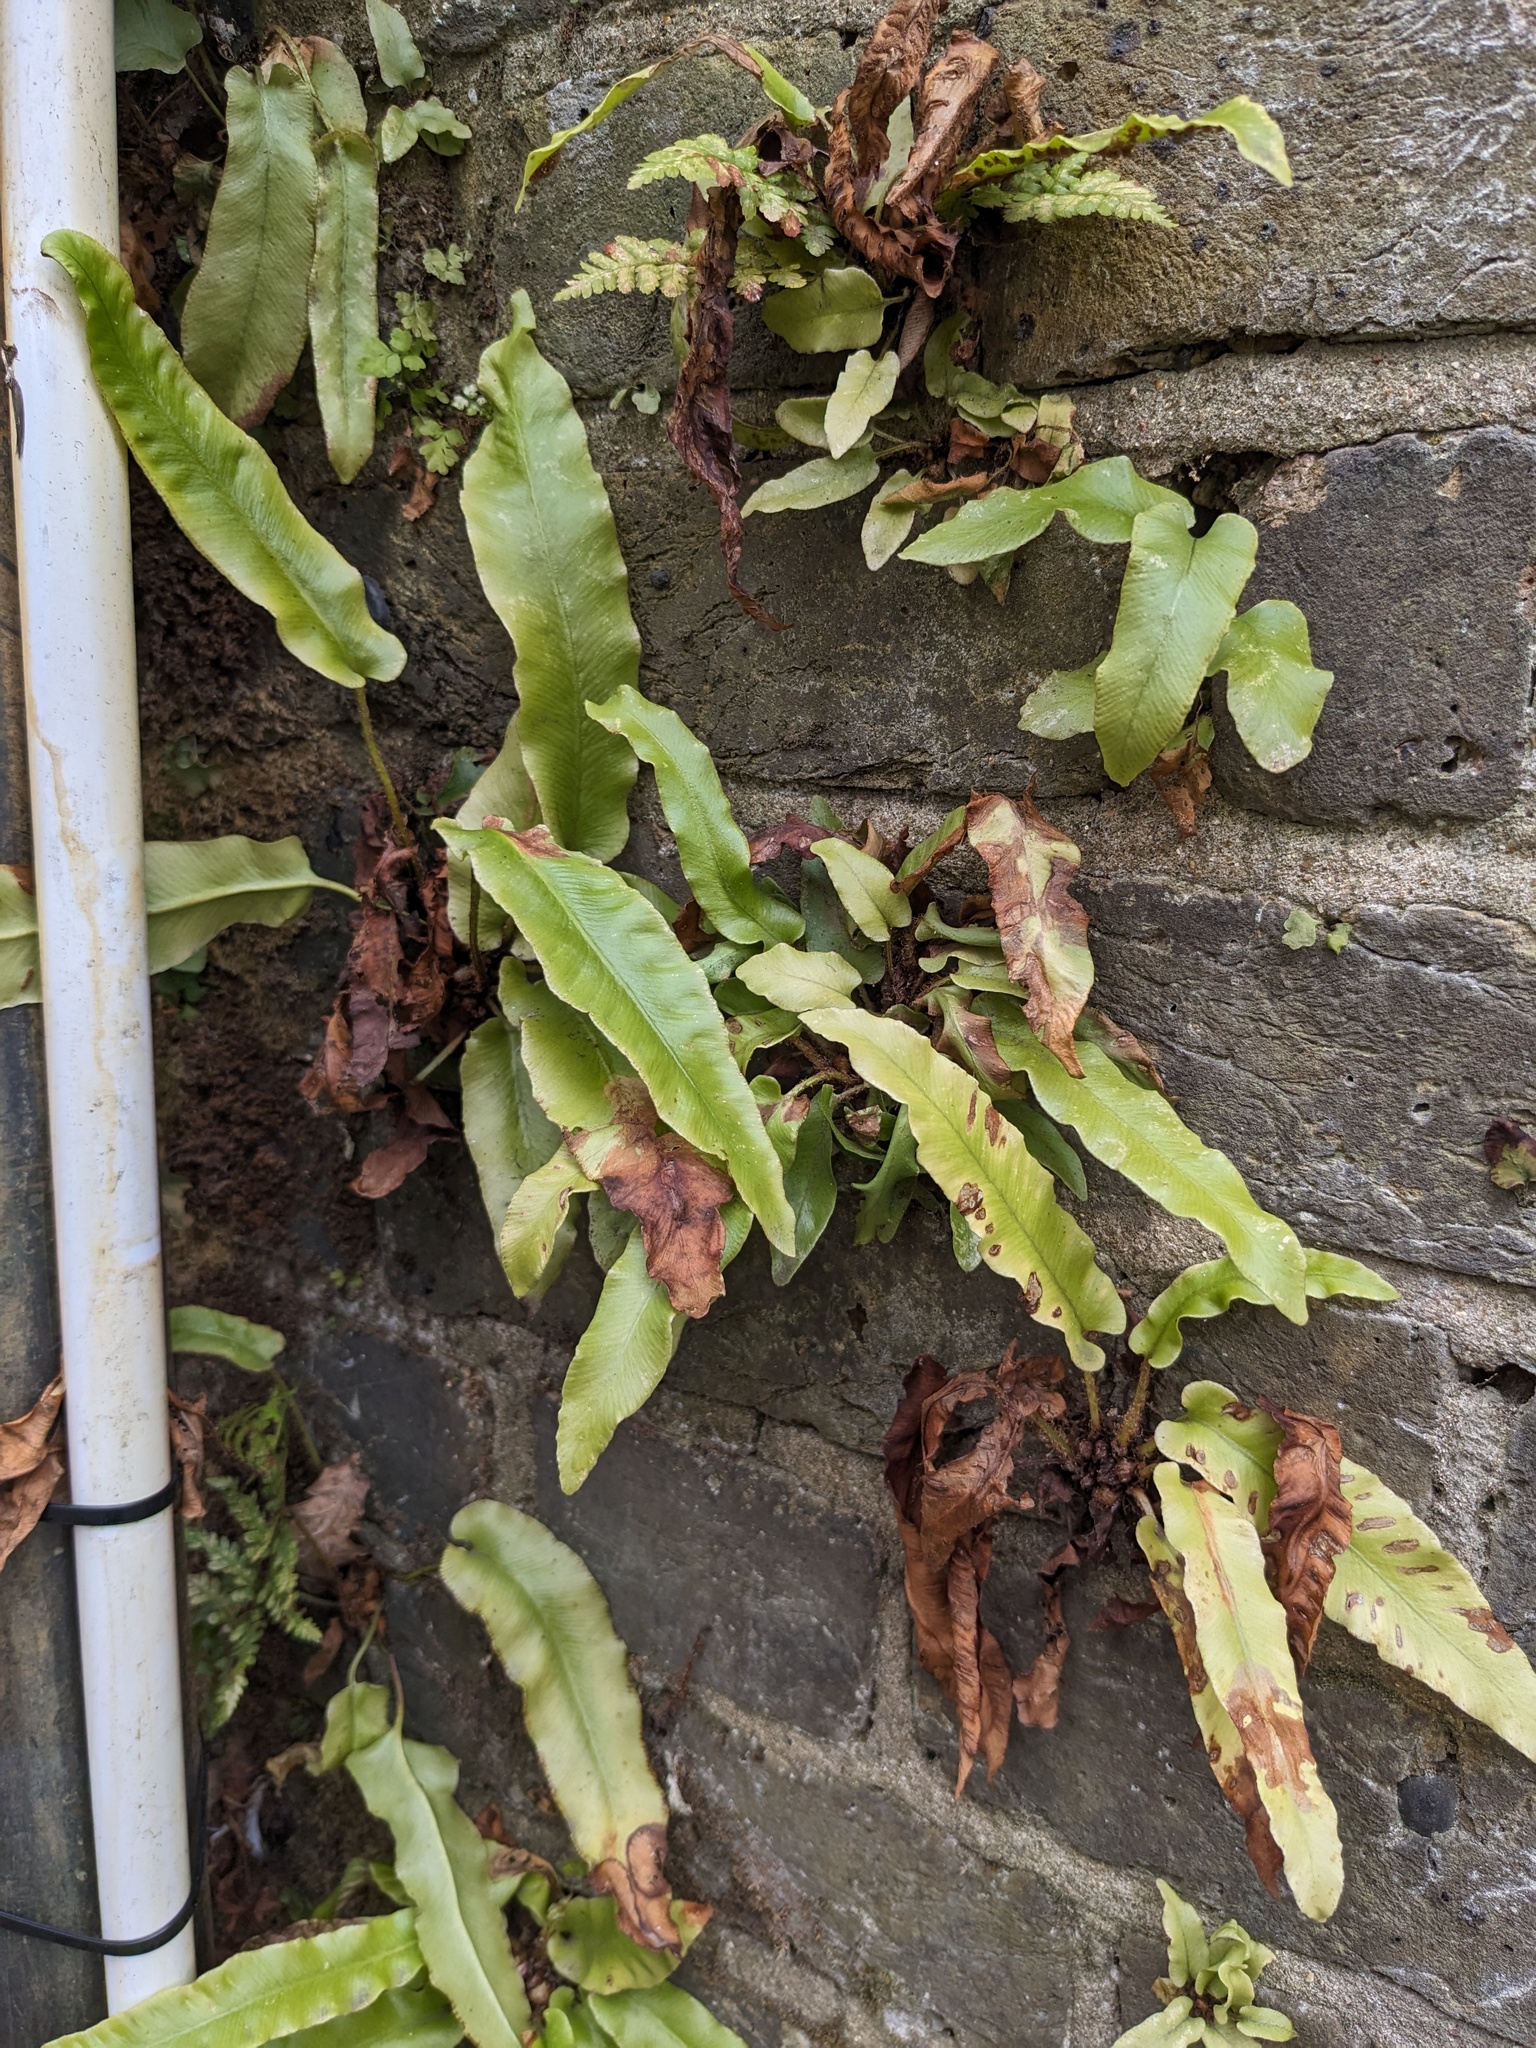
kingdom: Plantae
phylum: Tracheophyta
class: Polypodiopsida
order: Polypodiales
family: Aspleniaceae
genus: Asplenium
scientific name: Asplenium scolopendrium
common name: Hart's-tongue fern
